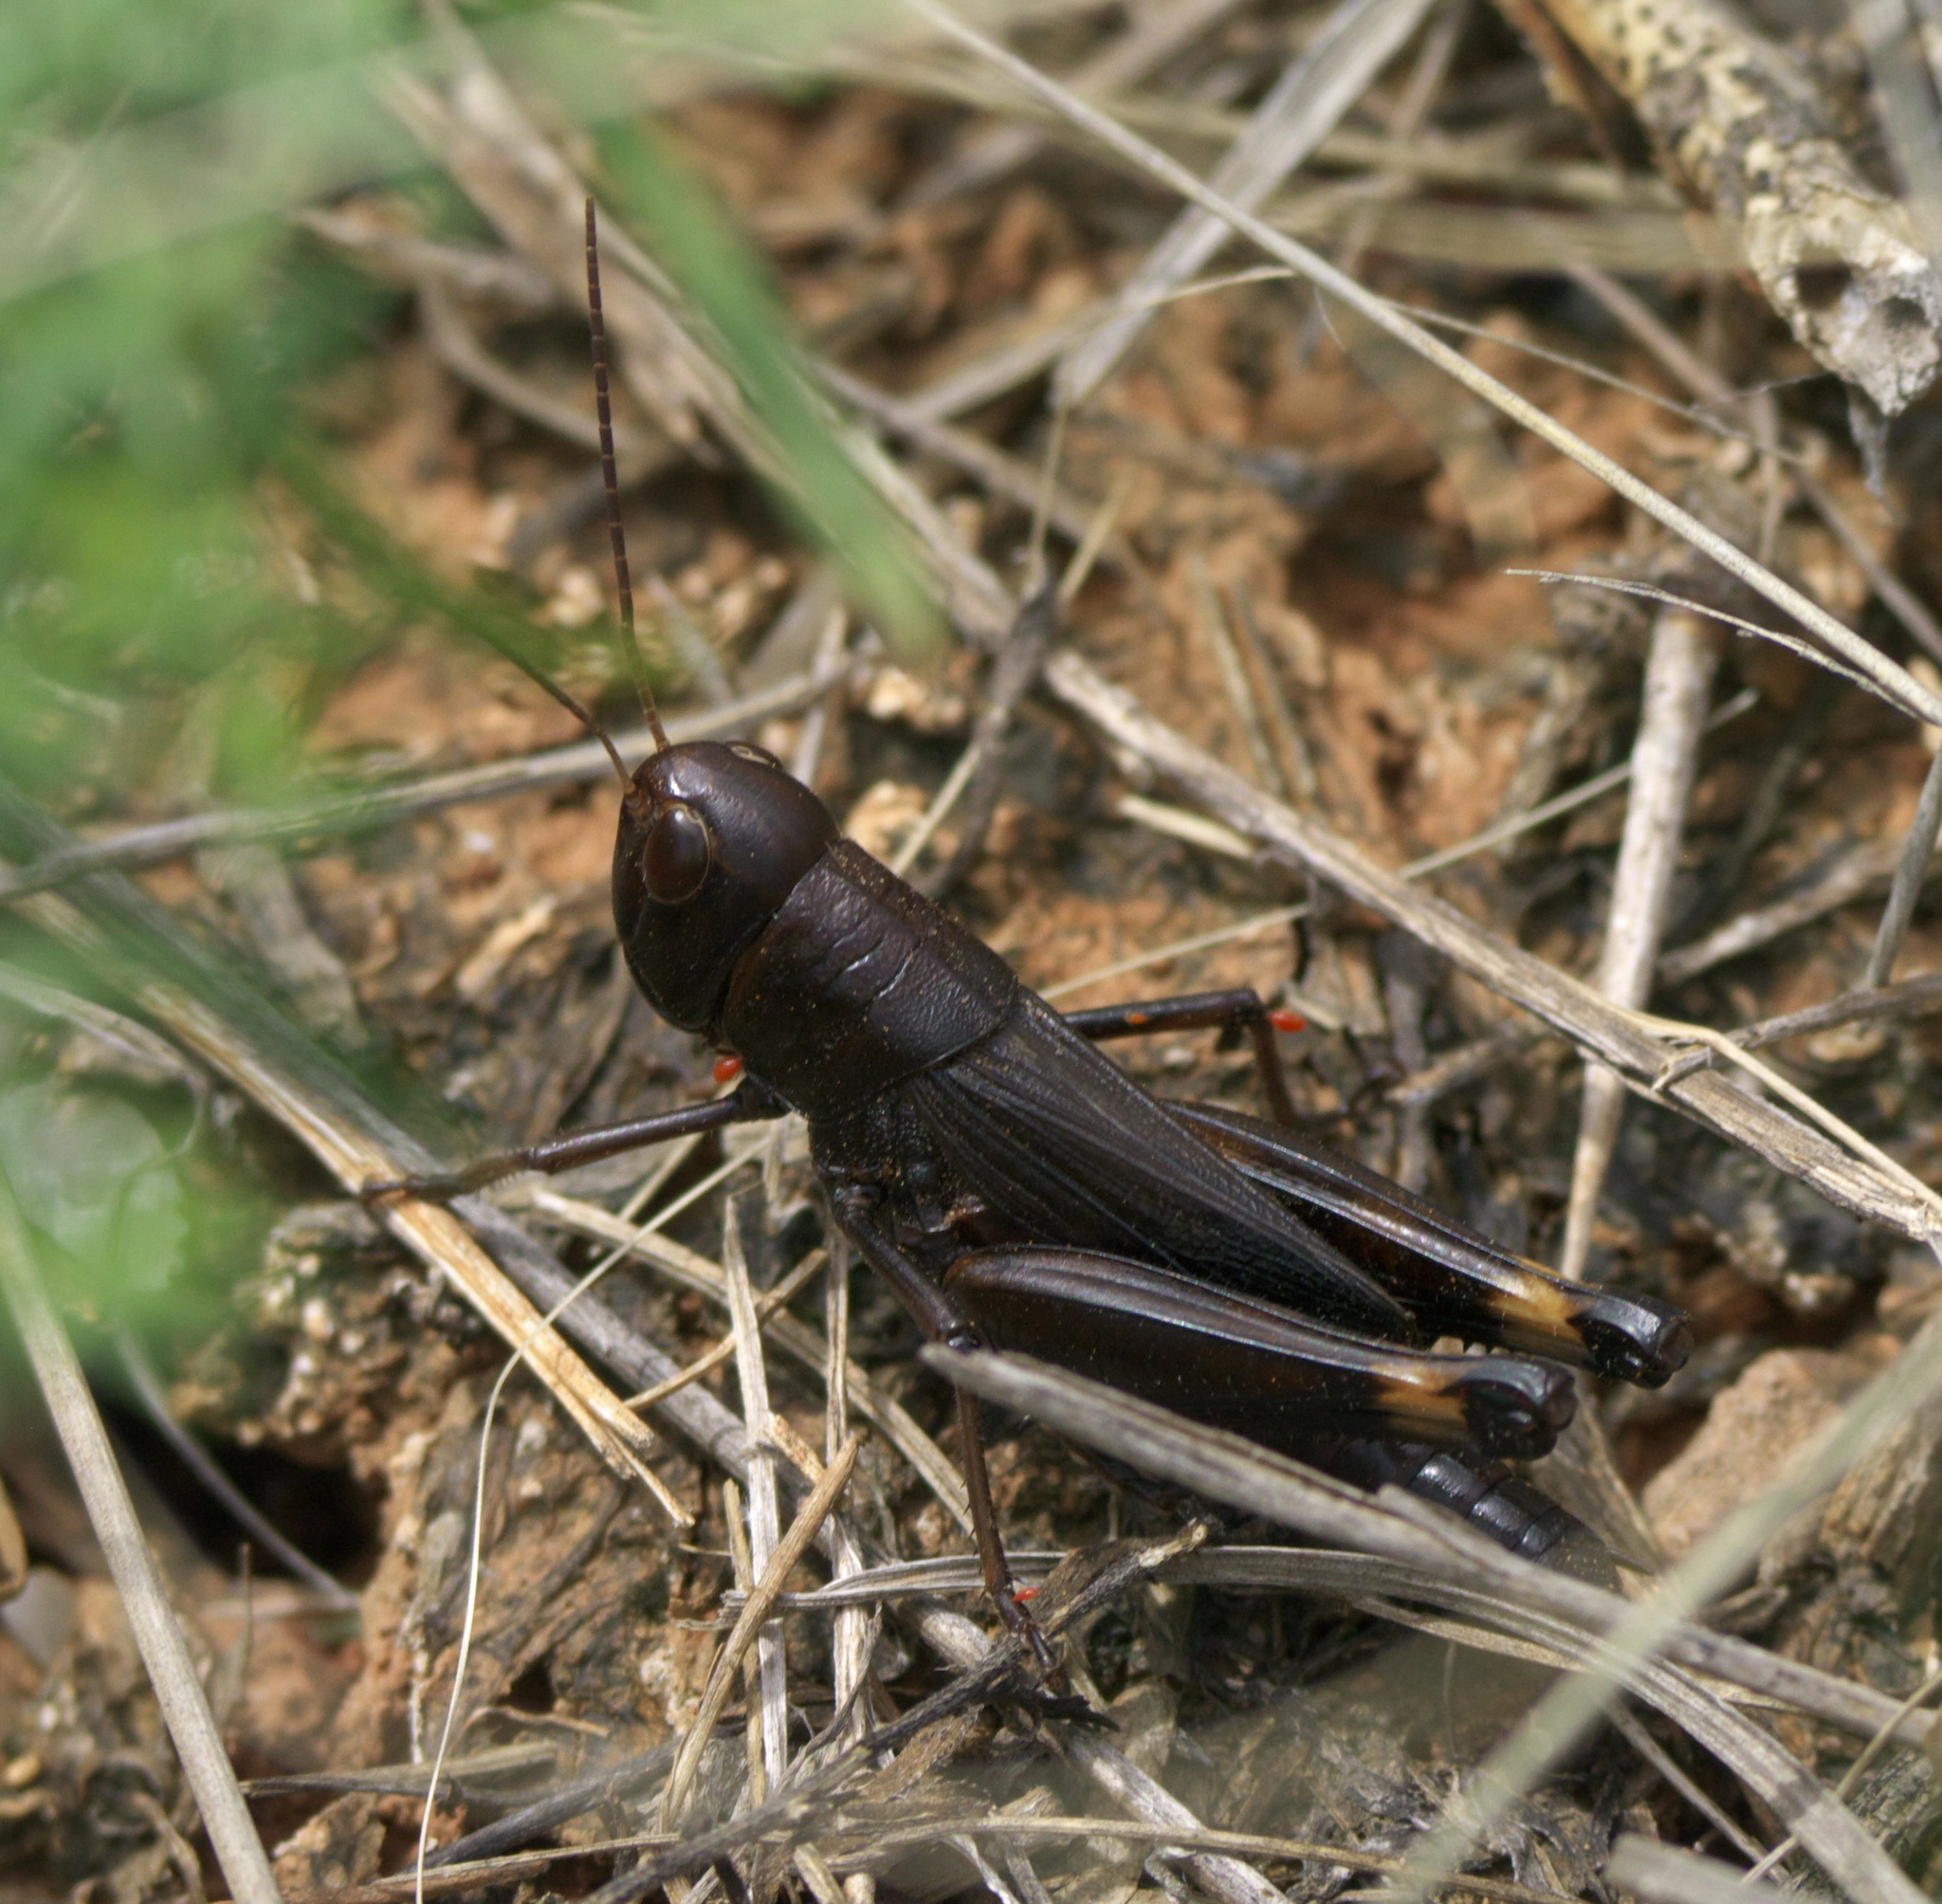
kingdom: Animalia
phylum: Arthropoda
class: Insecta
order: Orthoptera
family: Acrididae
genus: Boopedon
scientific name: Boopedon nubilum
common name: Ebony grasshopper
